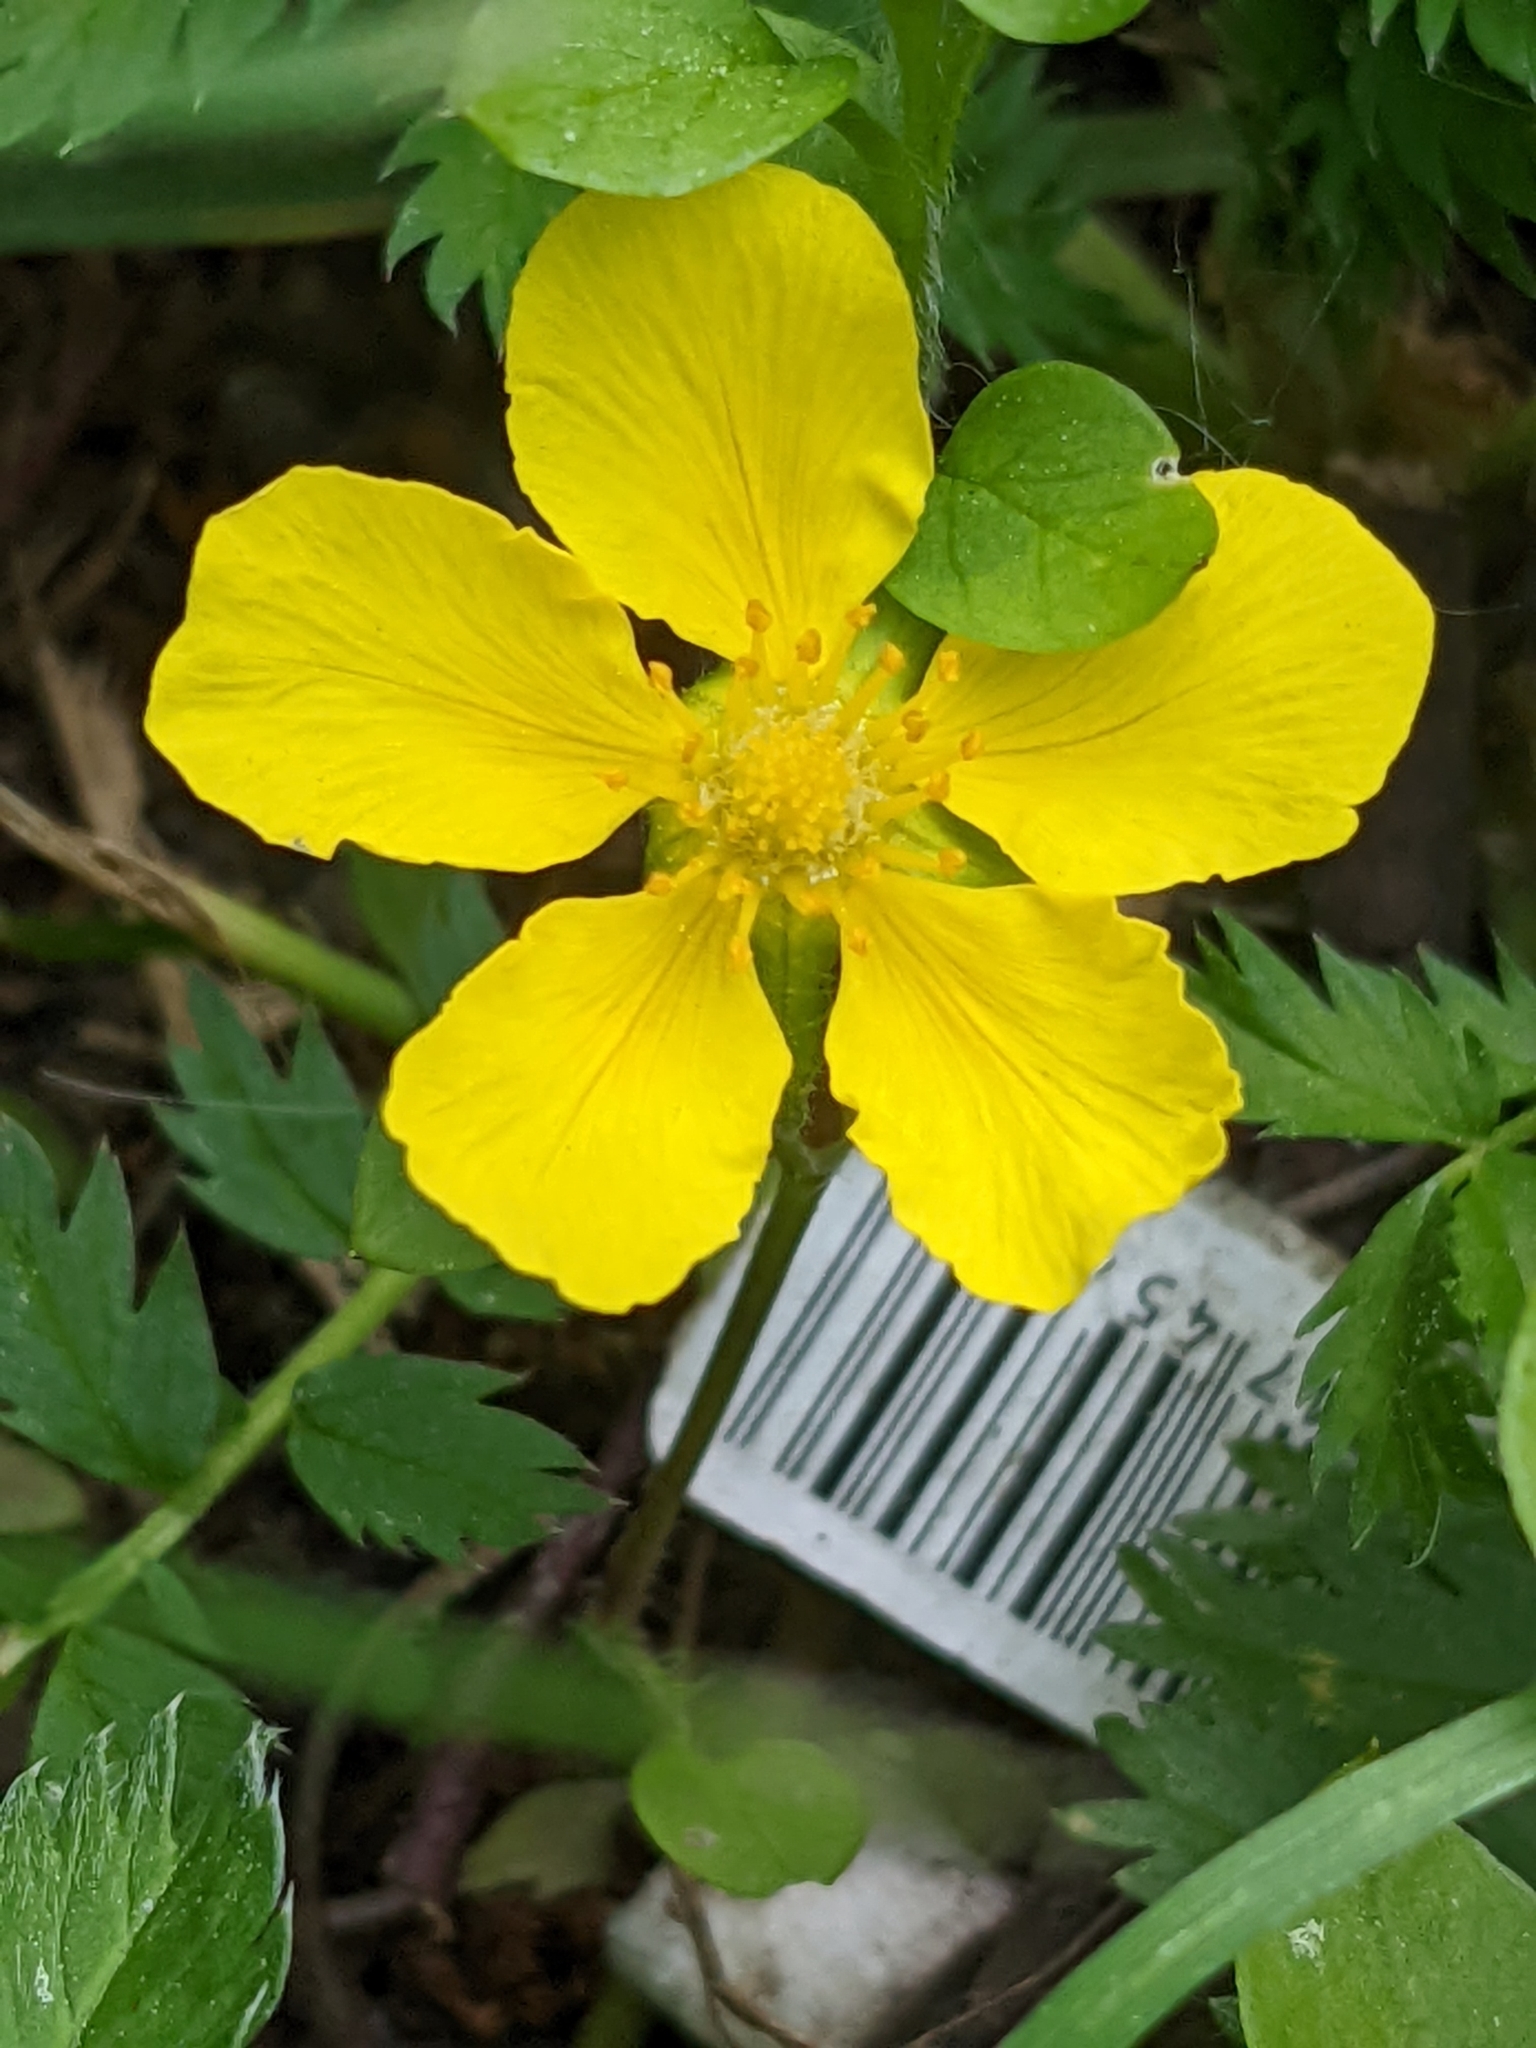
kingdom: Plantae
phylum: Tracheophyta
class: Magnoliopsida
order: Rosales
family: Rosaceae
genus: Argentina
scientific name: Argentina anserina
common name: Common silverweed
